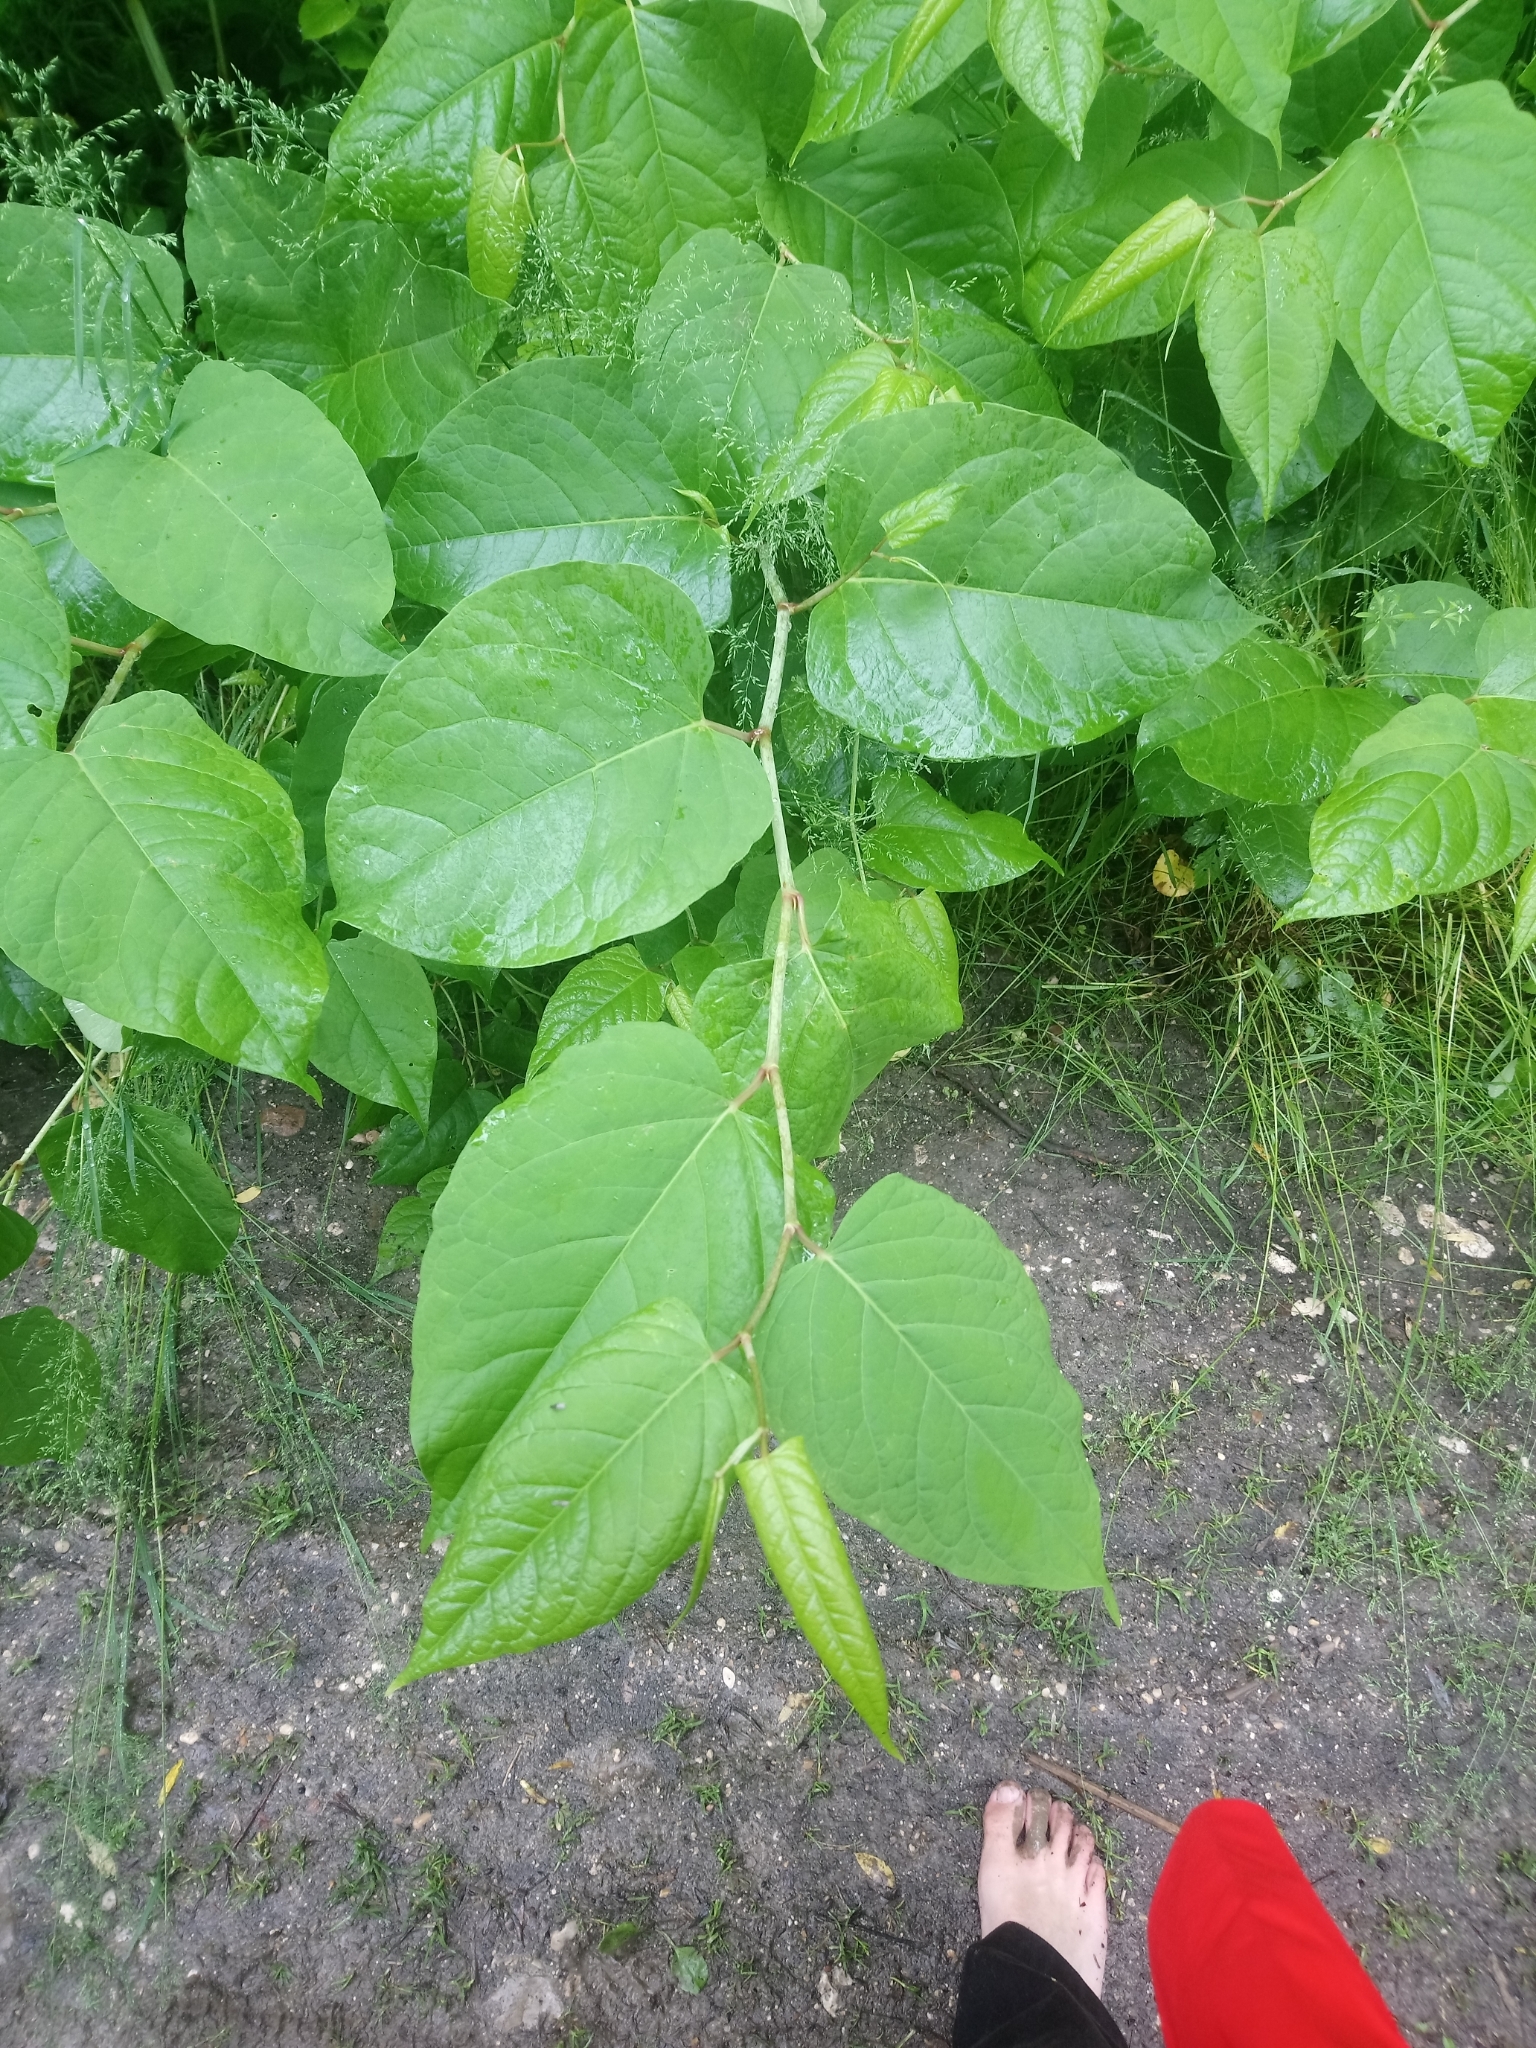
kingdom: Plantae
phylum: Tracheophyta
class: Magnoliopsida
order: Caryophyllales
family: Polygonaceae
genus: Reynoutria
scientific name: Reynoutria bohemica
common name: Bohemian knotweed
